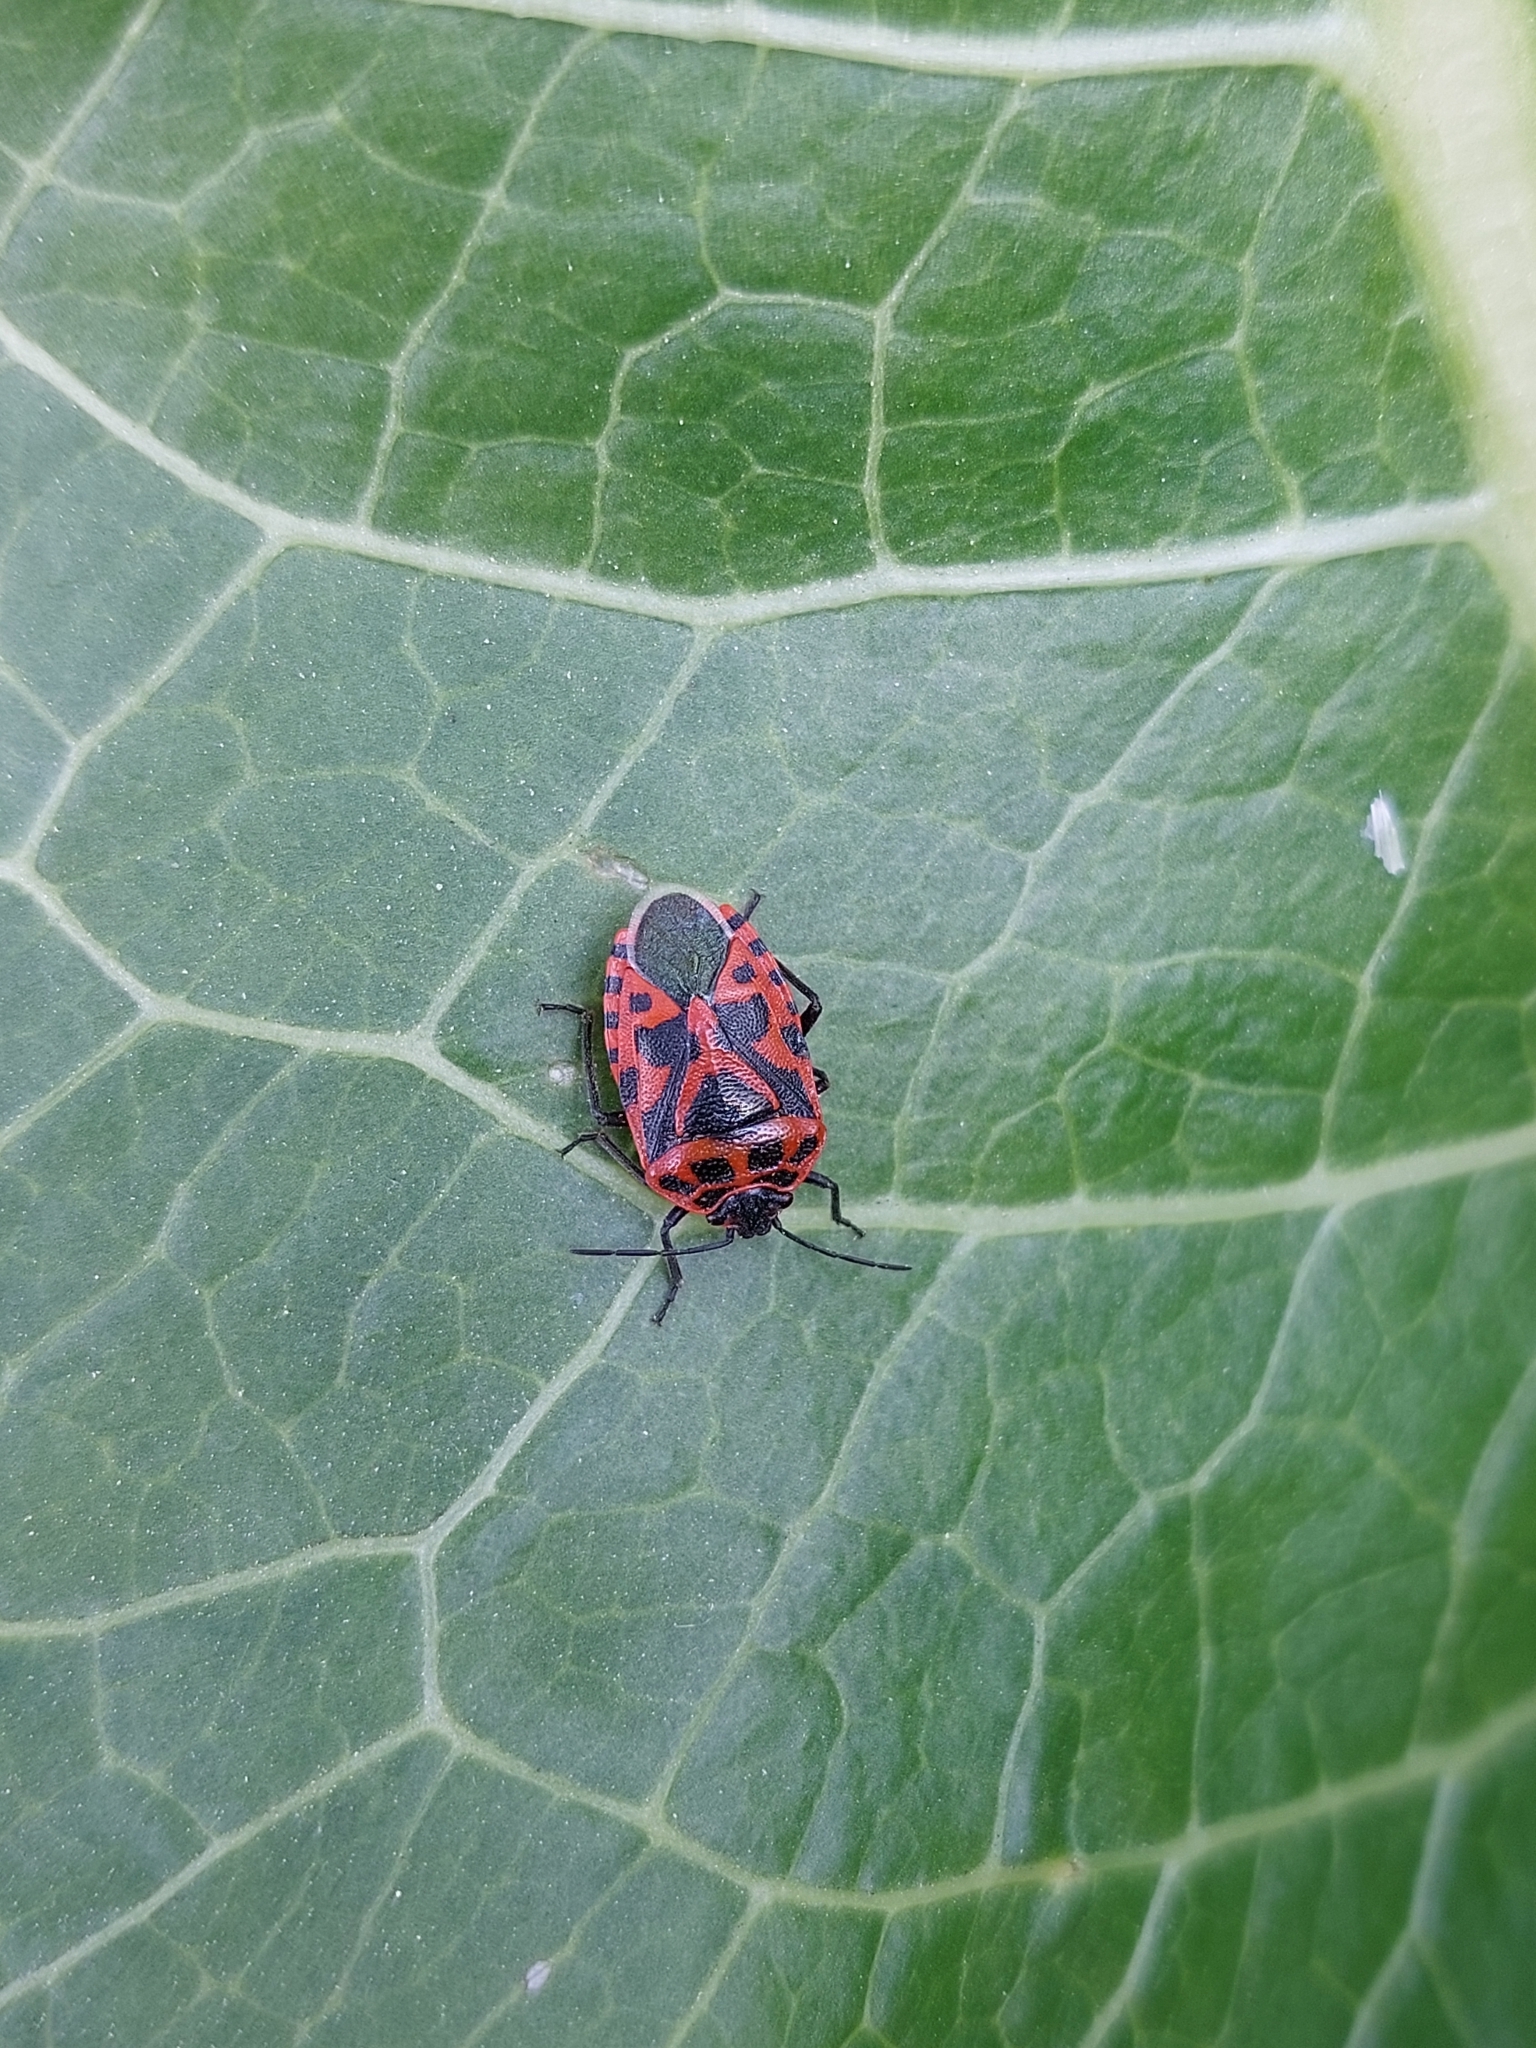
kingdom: Animalia
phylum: Arthropoda
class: Insecta
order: Hemiptera
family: Pentatomidae
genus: Eurydema
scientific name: Eurydema ventralis
